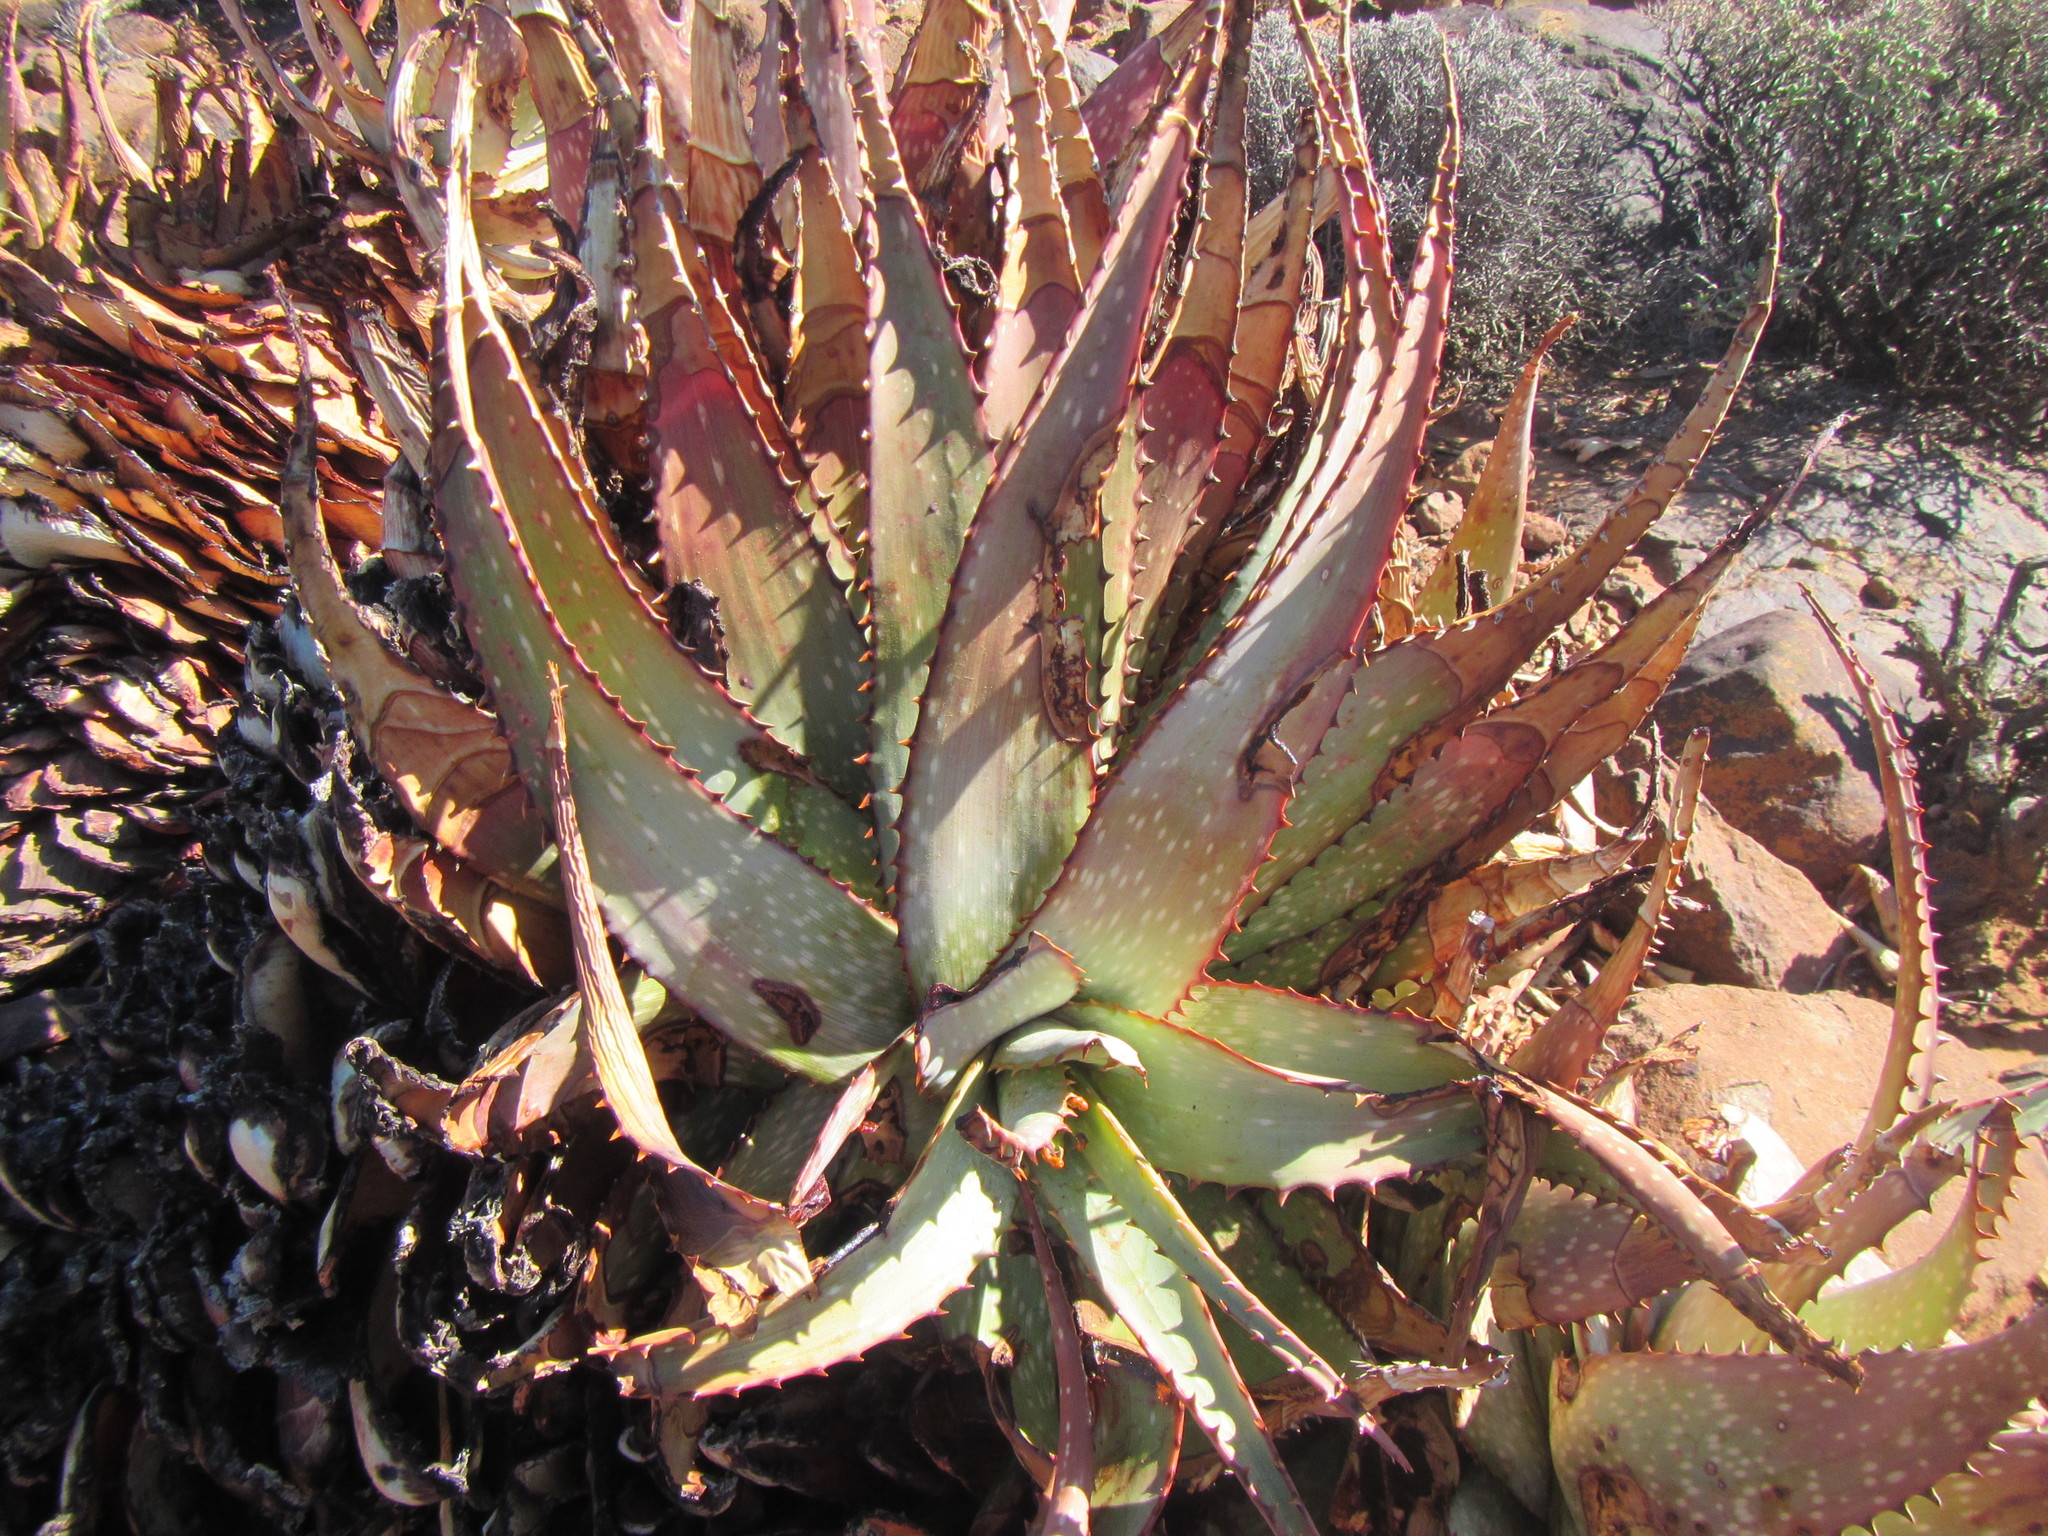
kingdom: Plantae
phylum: Tracheophyta
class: Liliopsida
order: Asparagales
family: Asphodelaceae
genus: Aloe
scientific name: Aloe microstigma
